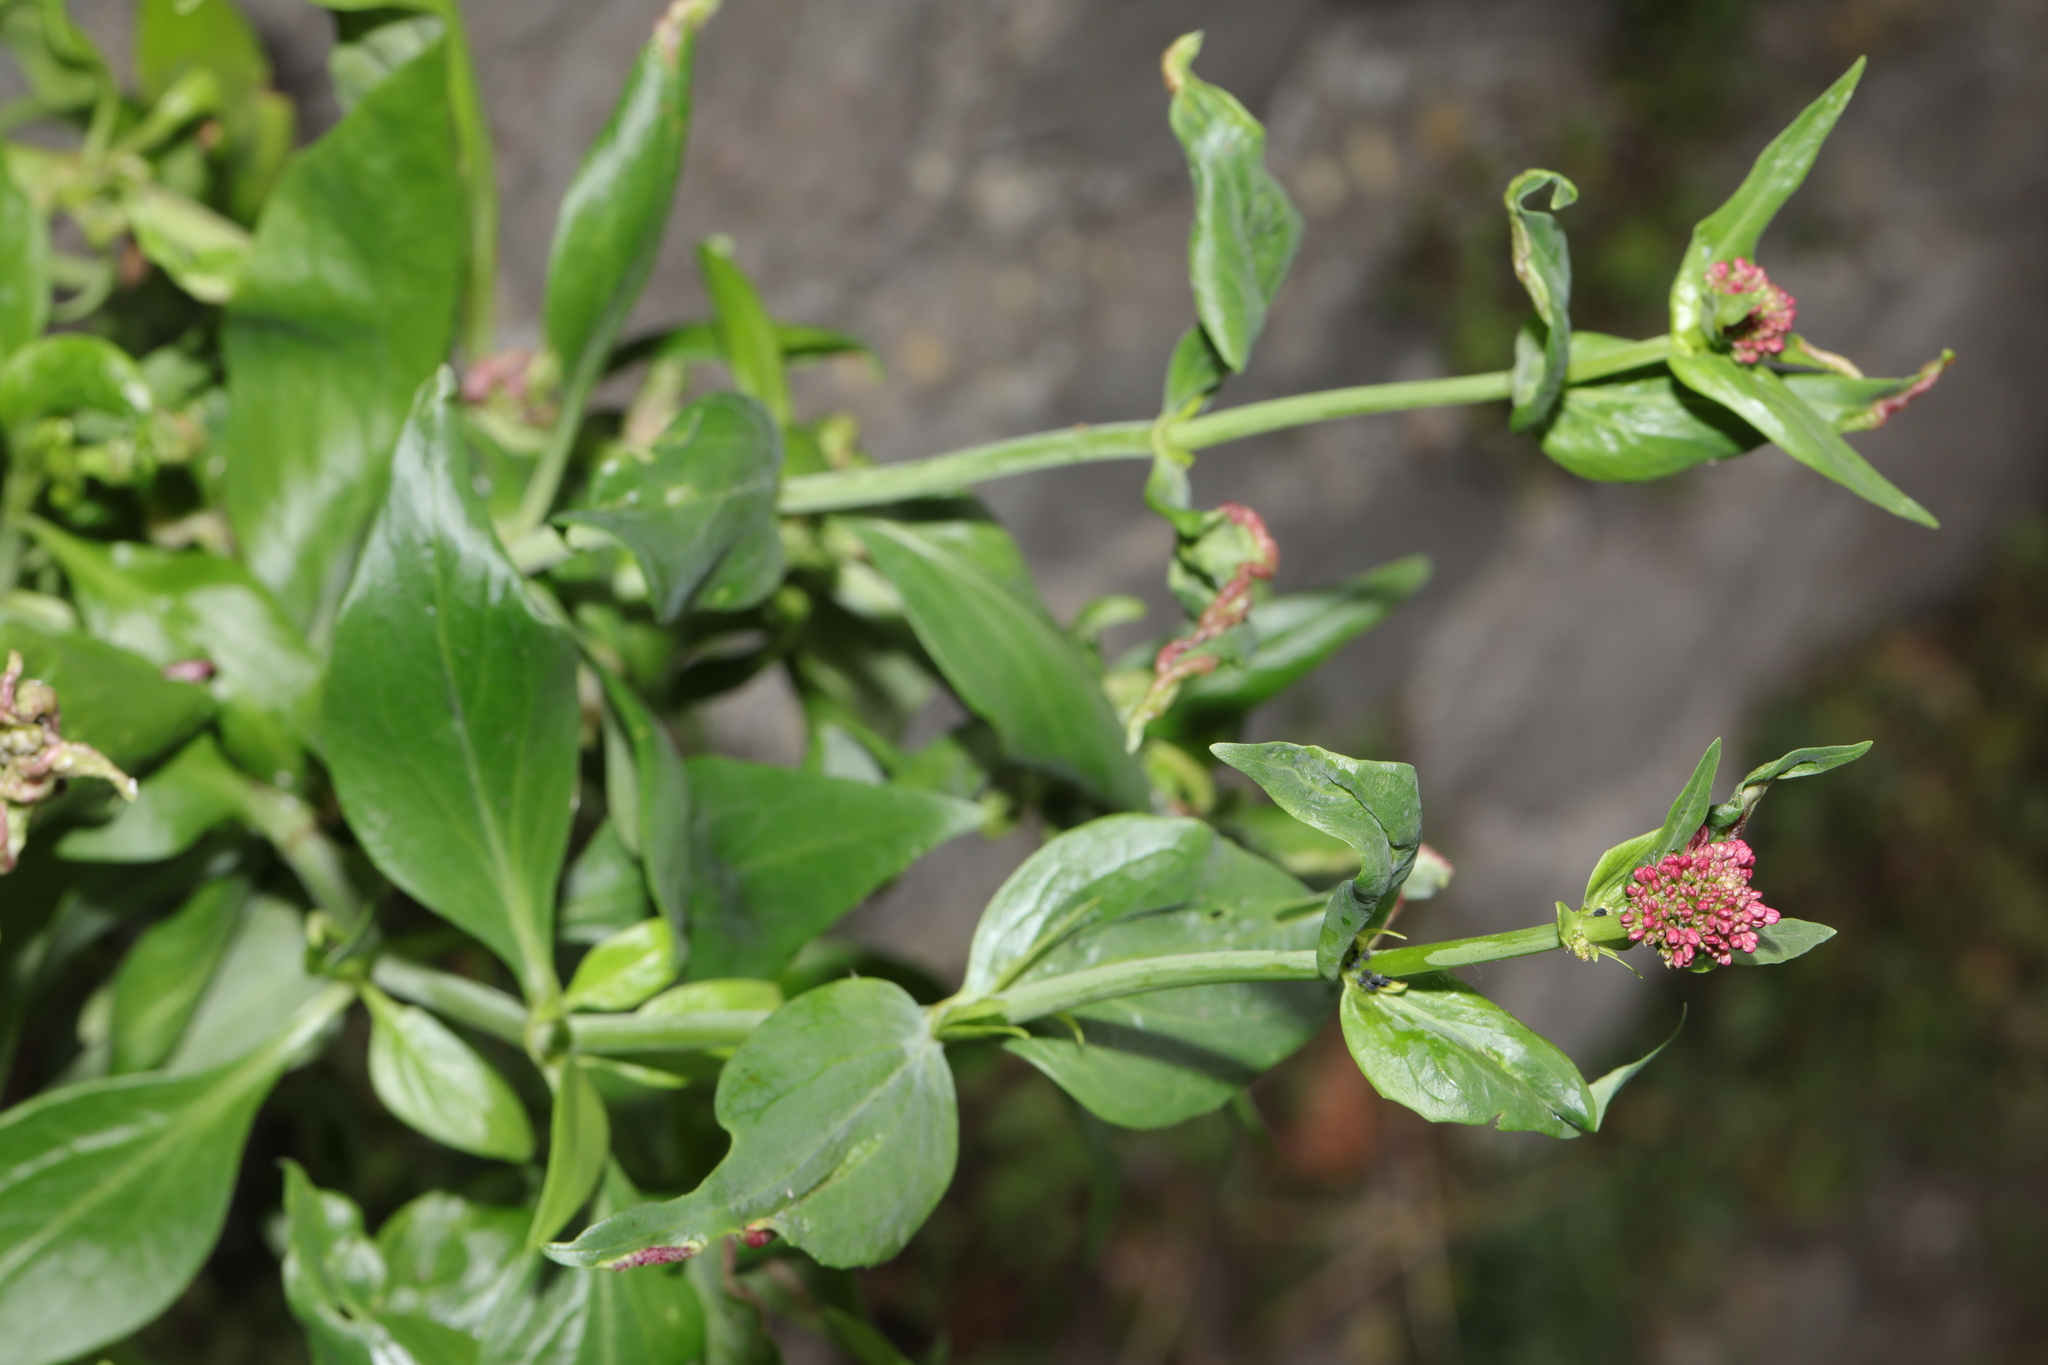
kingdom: Plantae
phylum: Tracheophyta
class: Magnoliopsida
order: Dipsacales
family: Caprifoliaceae
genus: Centranthus
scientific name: Centranthus ruber
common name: Red valerian
